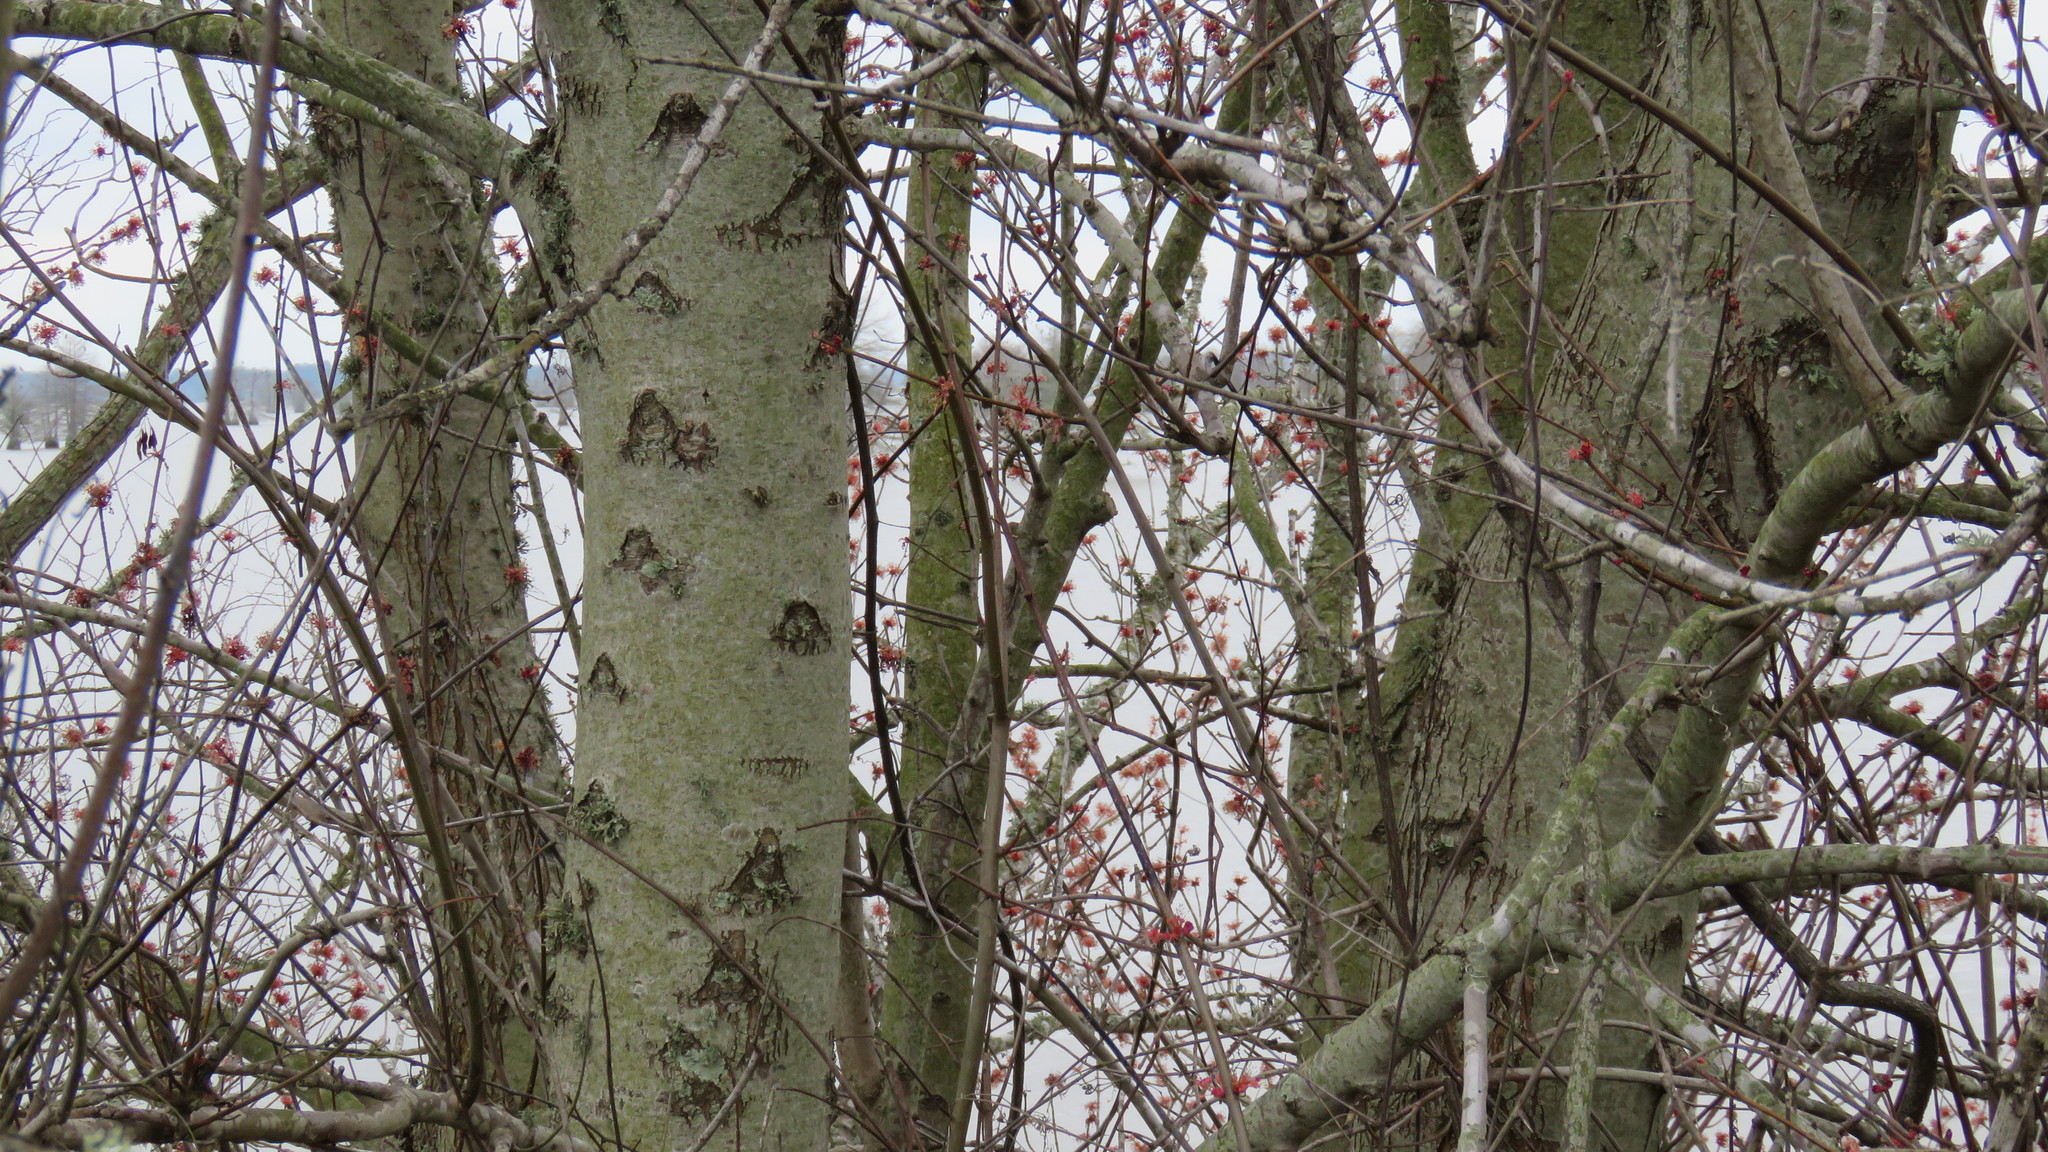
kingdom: Plantae
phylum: Tracheophyta
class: Magnoliopsida
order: Sapindales
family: Sapindaceae
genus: Acer
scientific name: Acer rubrum
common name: Red maple
